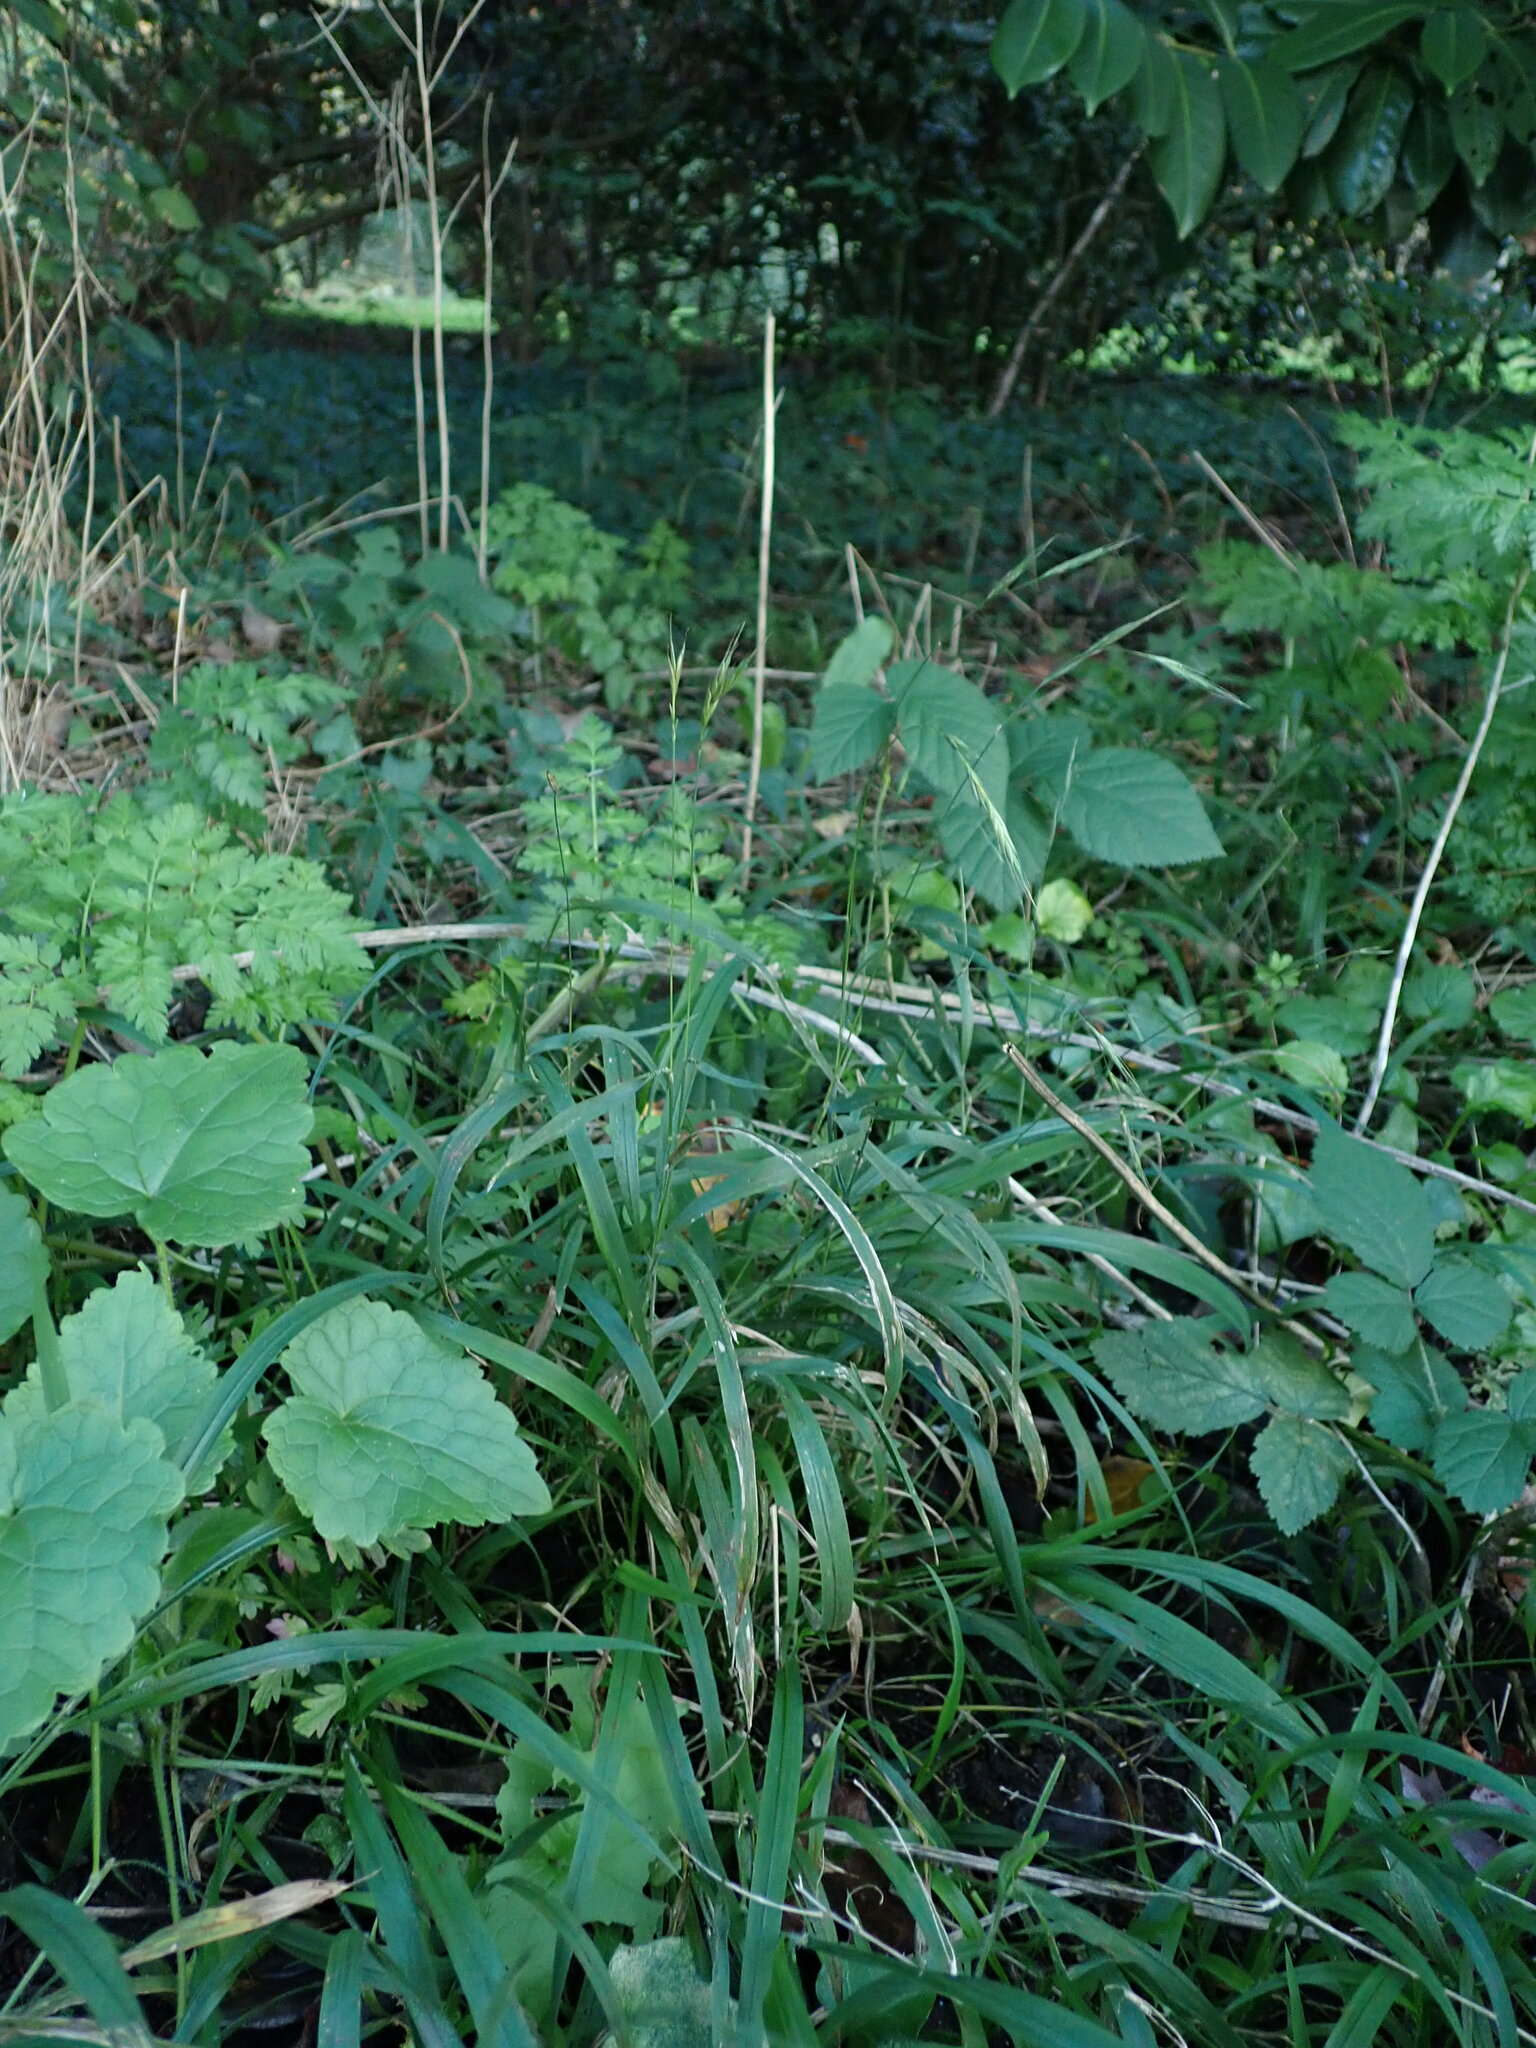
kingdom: Plantae
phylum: Tracheophyta
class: Liliopsida
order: Poales
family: Poaceae
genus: Brachypodium
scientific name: Brachypodium sylvaticum
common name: False-brome
